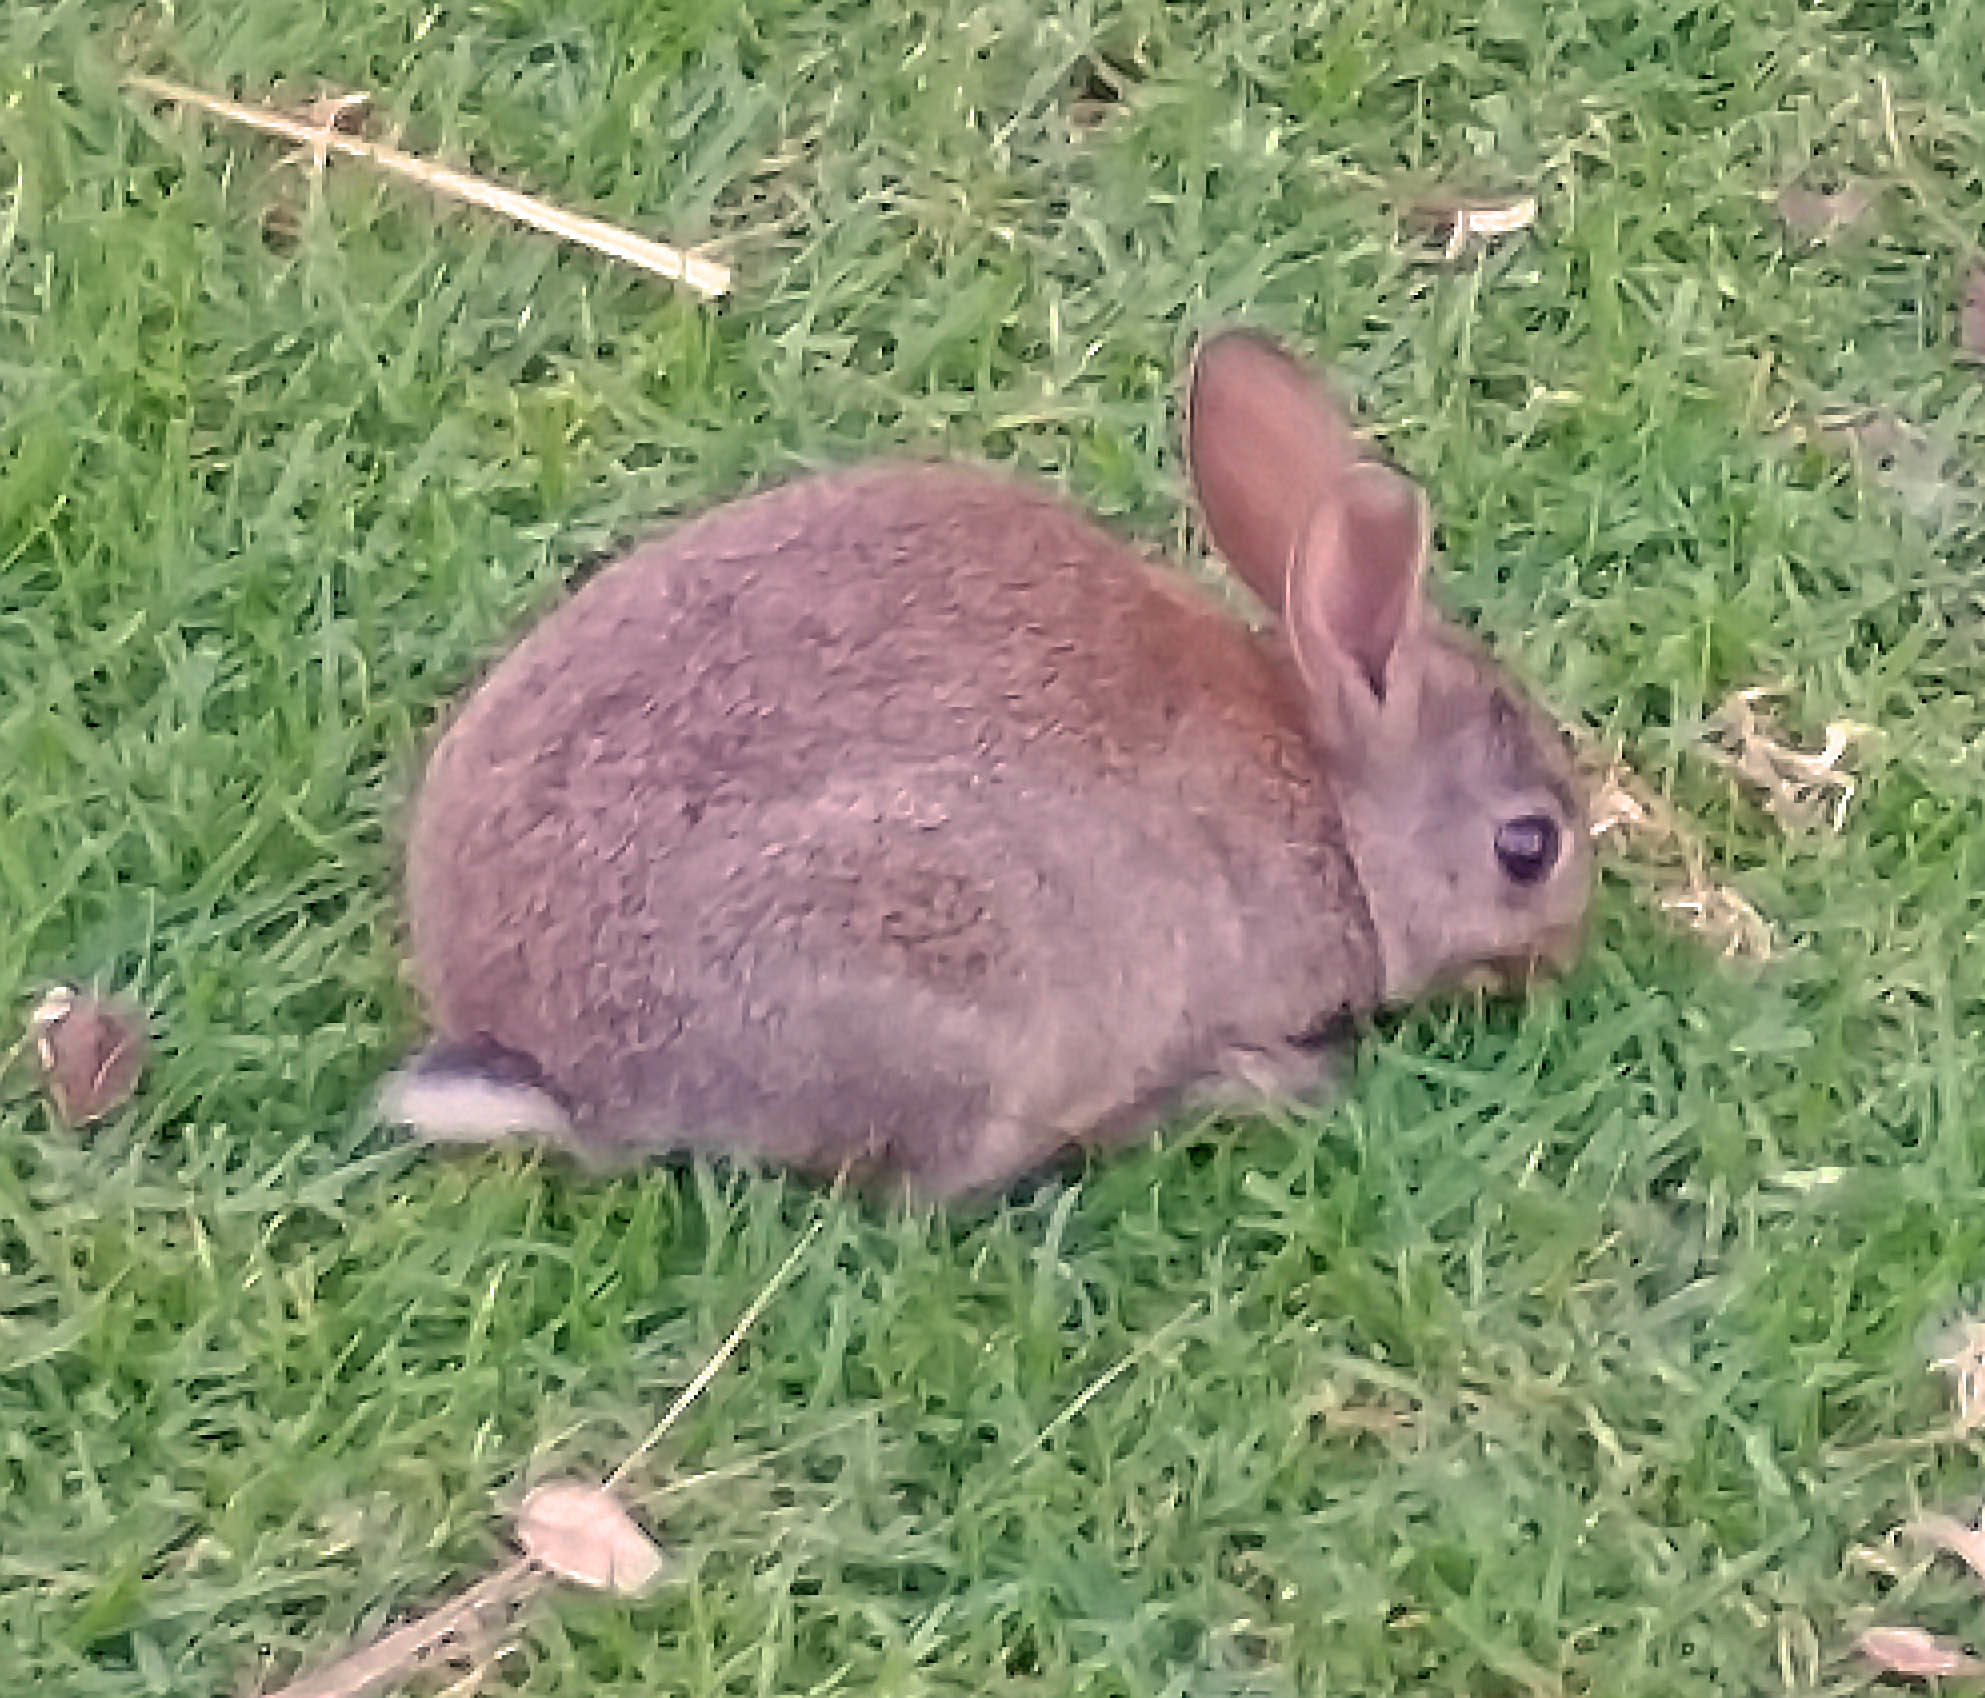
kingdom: Animalia
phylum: Chordata
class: Mammalia
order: Lagomorpha
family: Leporidae
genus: Oryctolagus
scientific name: Oryctolagus cuniculus
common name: European rabbit
